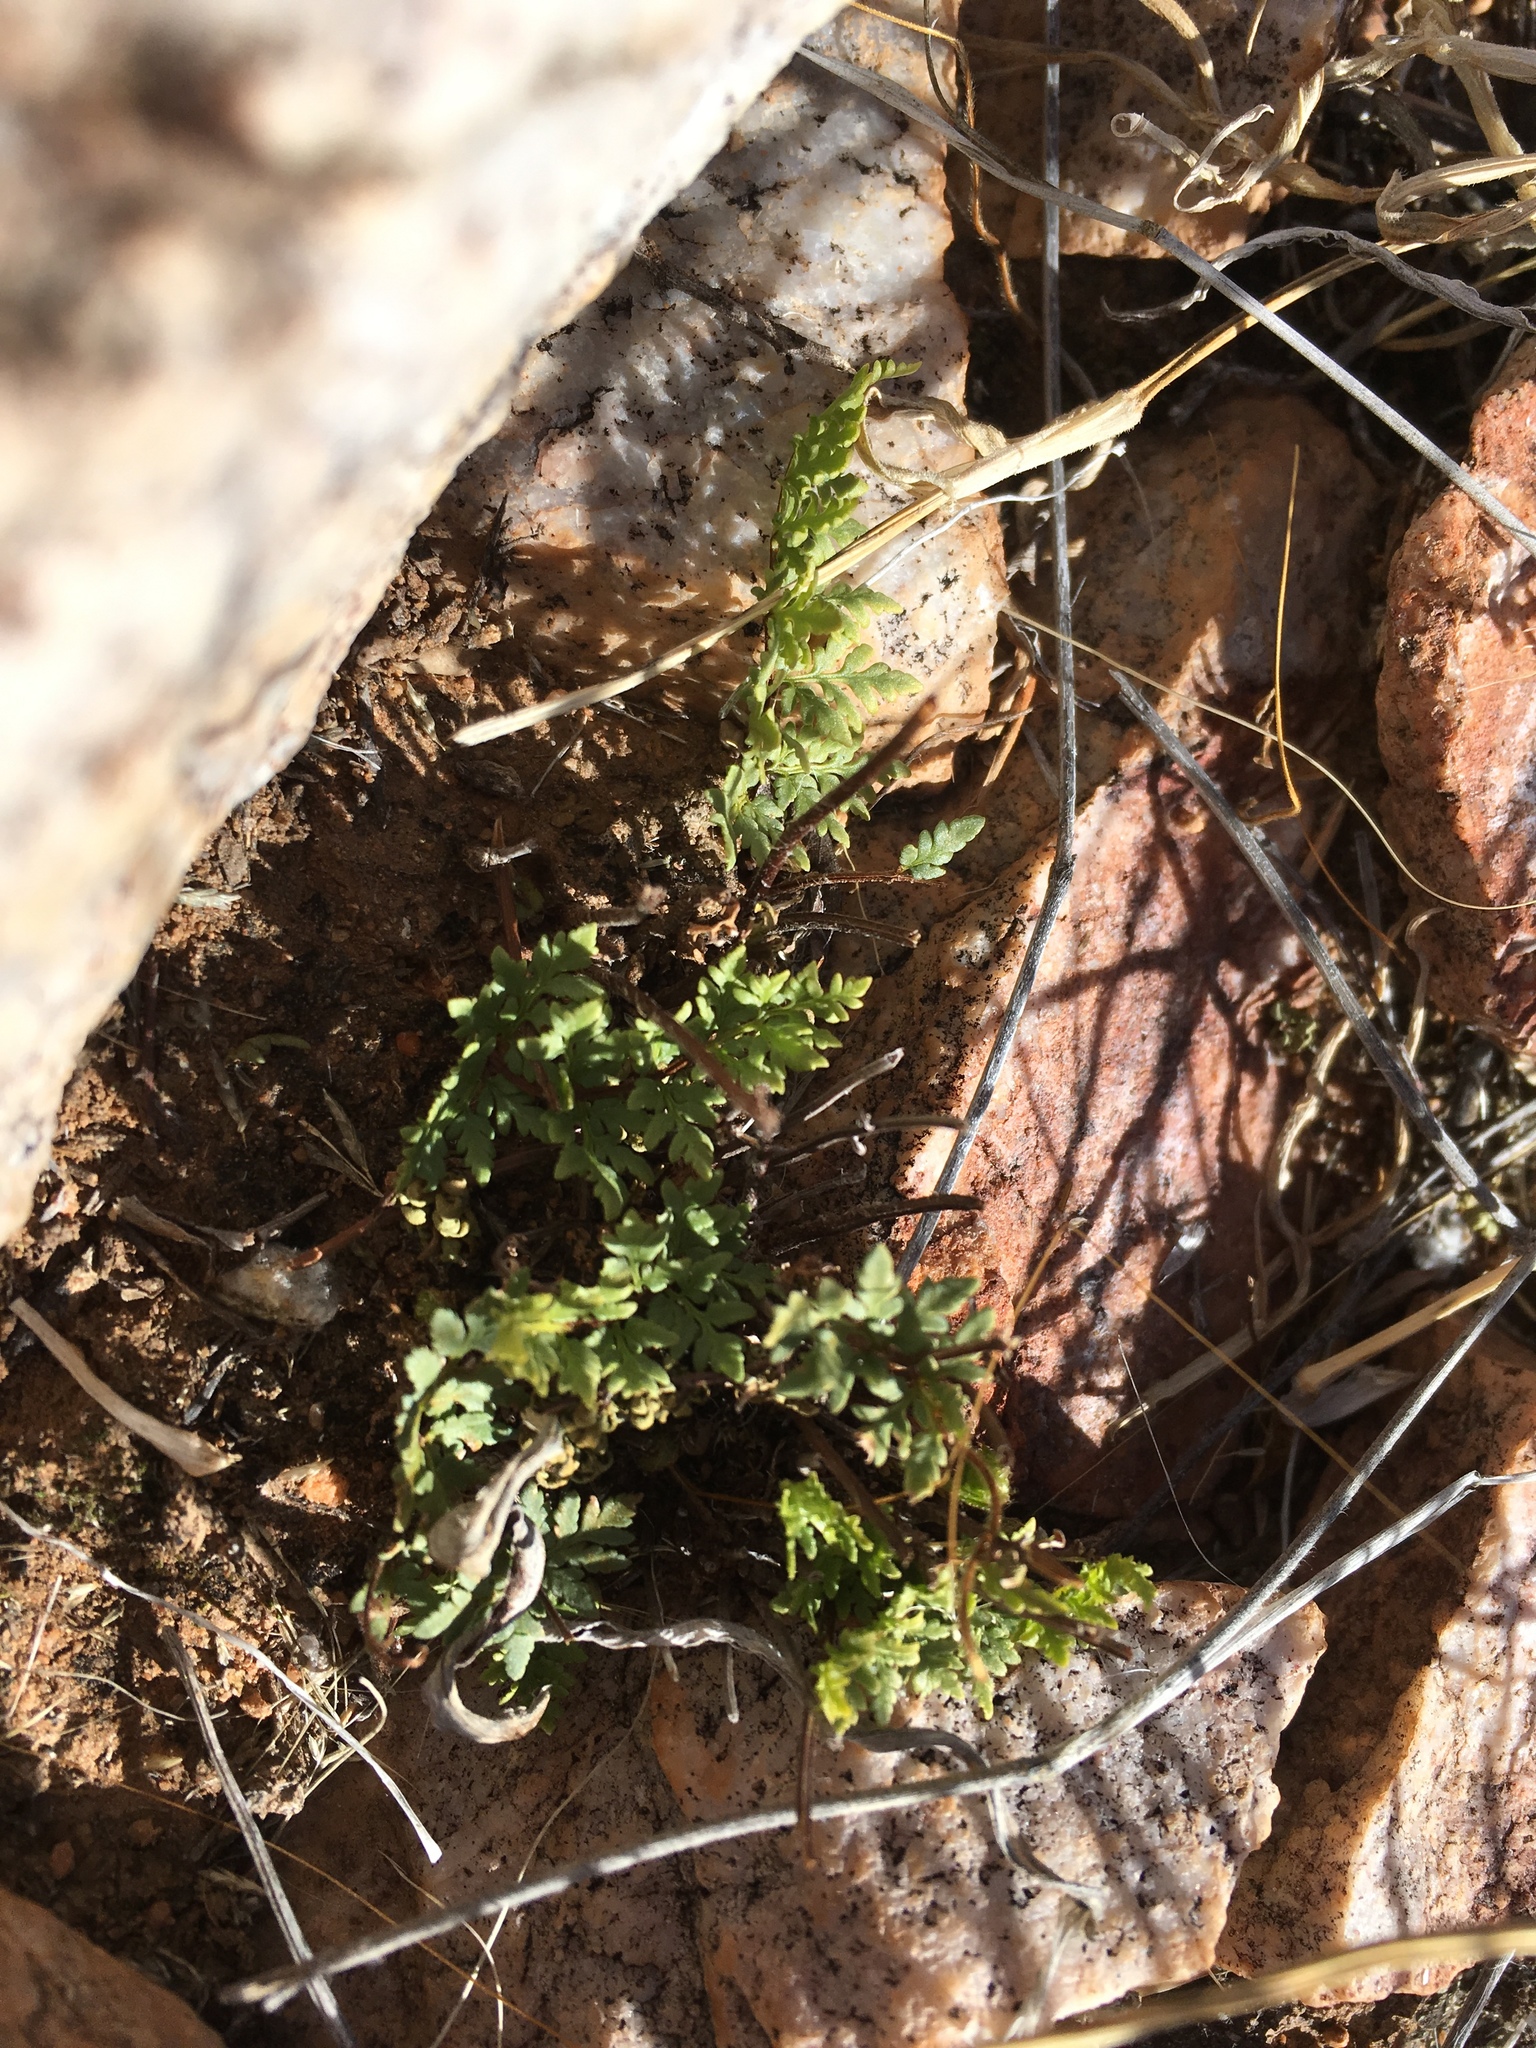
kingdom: Plantae
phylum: Tracheophyta
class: Polypodiopsida
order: Polypodiales
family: Pteridaceae
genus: Myriopteris
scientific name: Myriopteris wrightii
